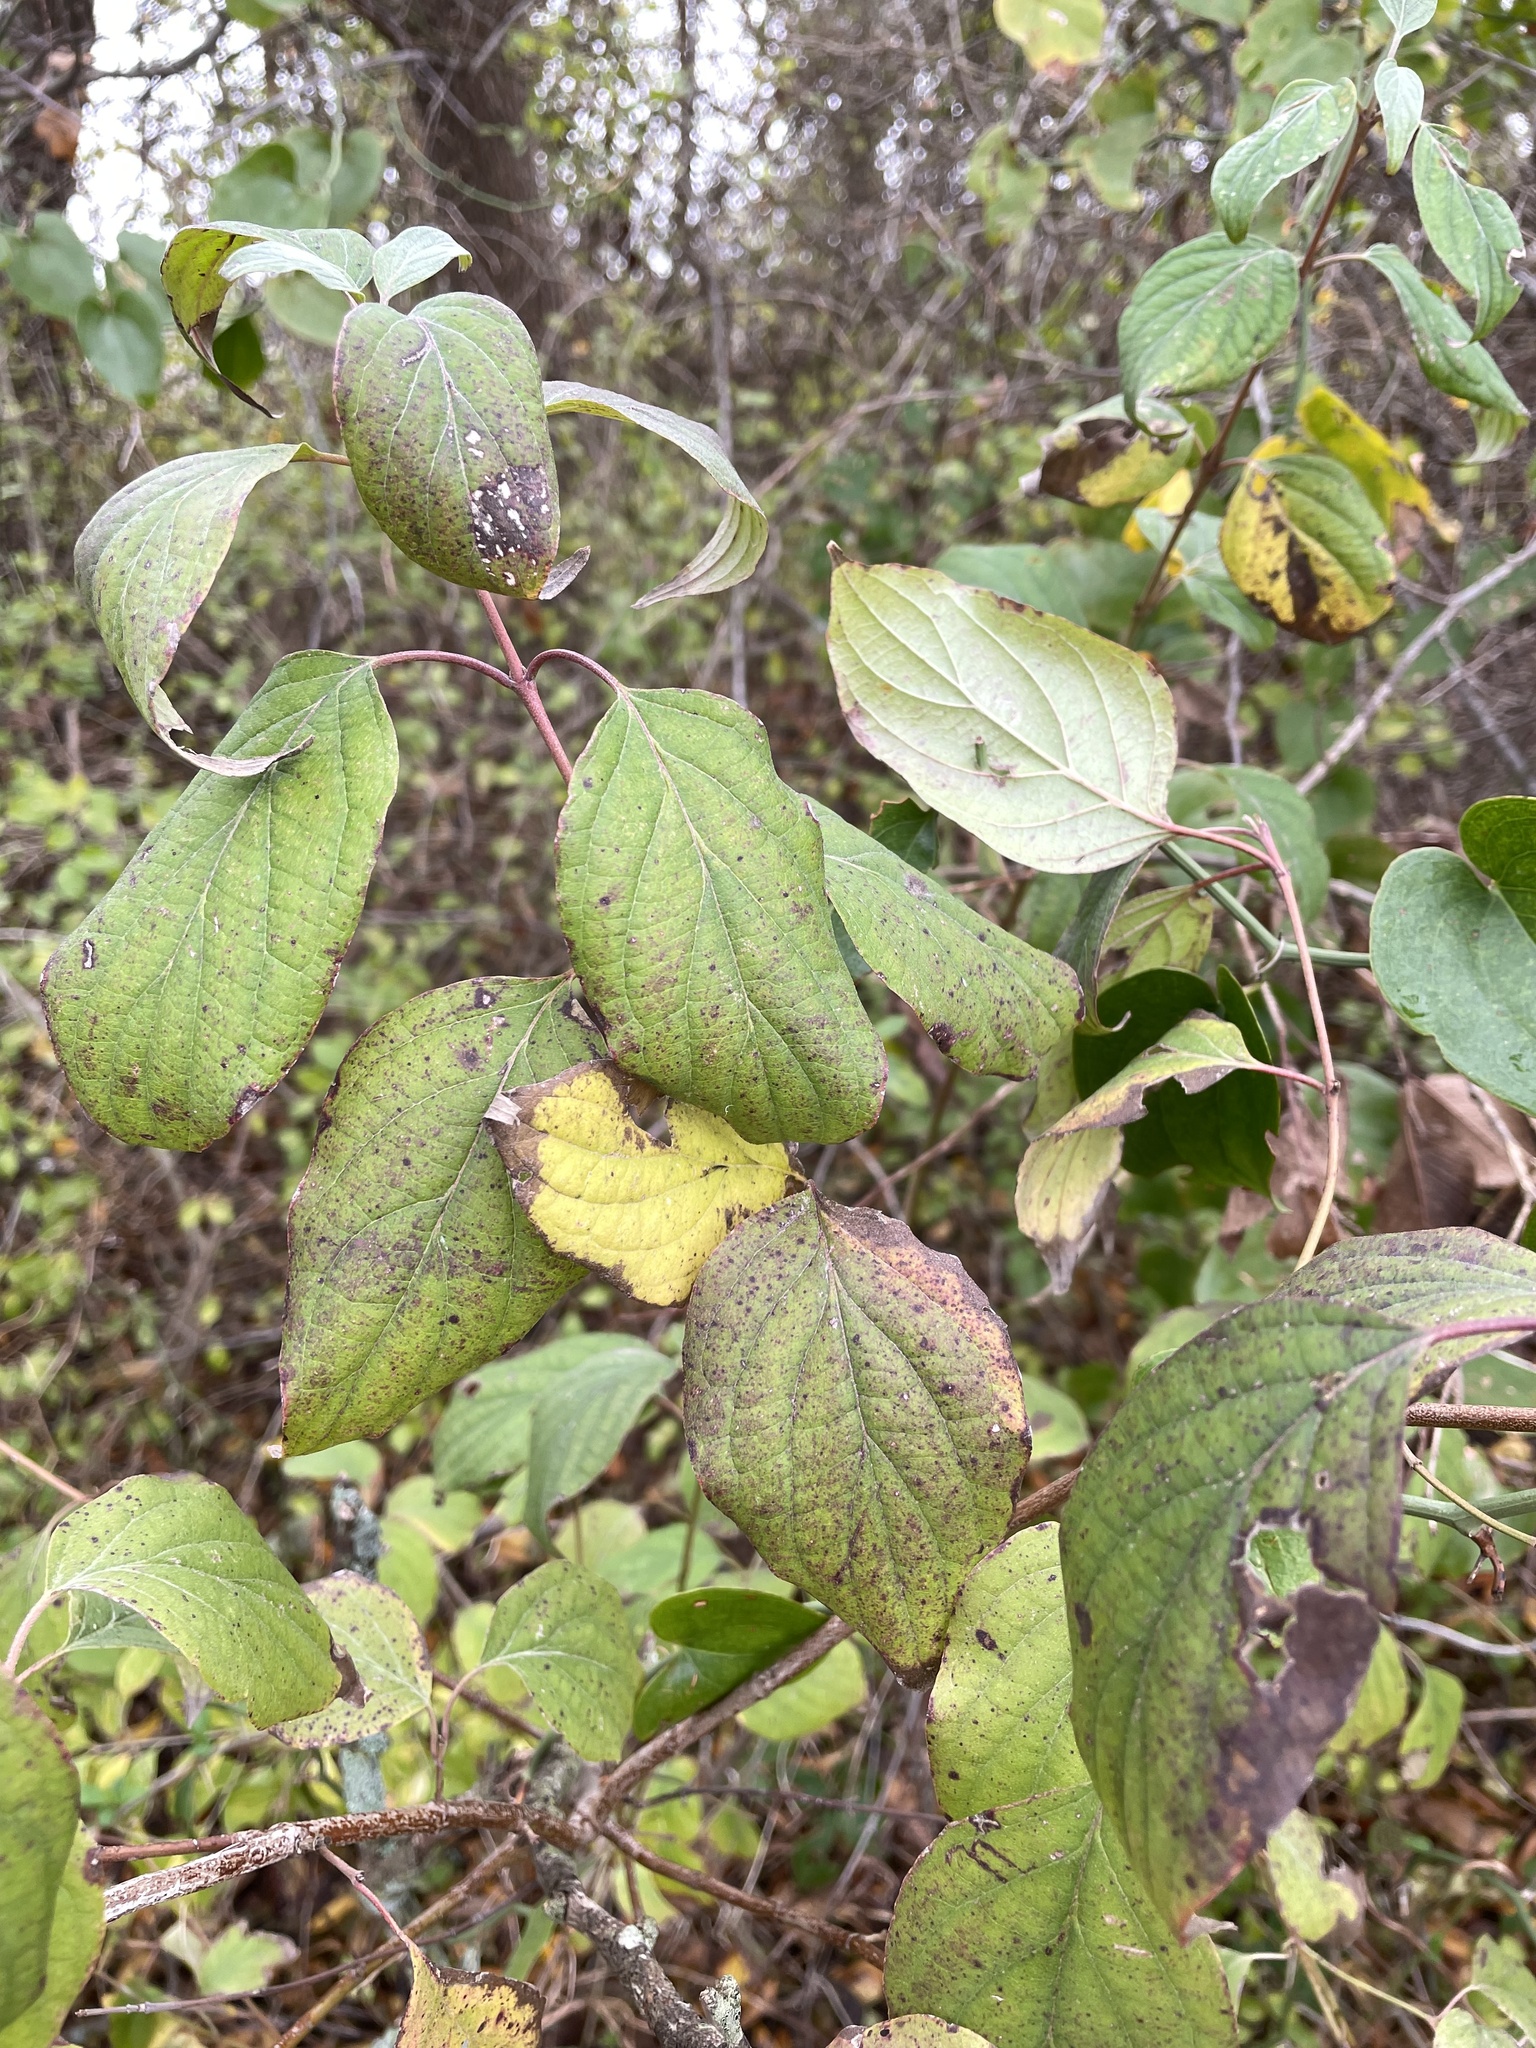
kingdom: Plantae
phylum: Tracheophyta
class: Magnoliopsida
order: Cornales
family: Cornaceae
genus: Cornus
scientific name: Cornus drummondii
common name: Rough-leaf dogwood
